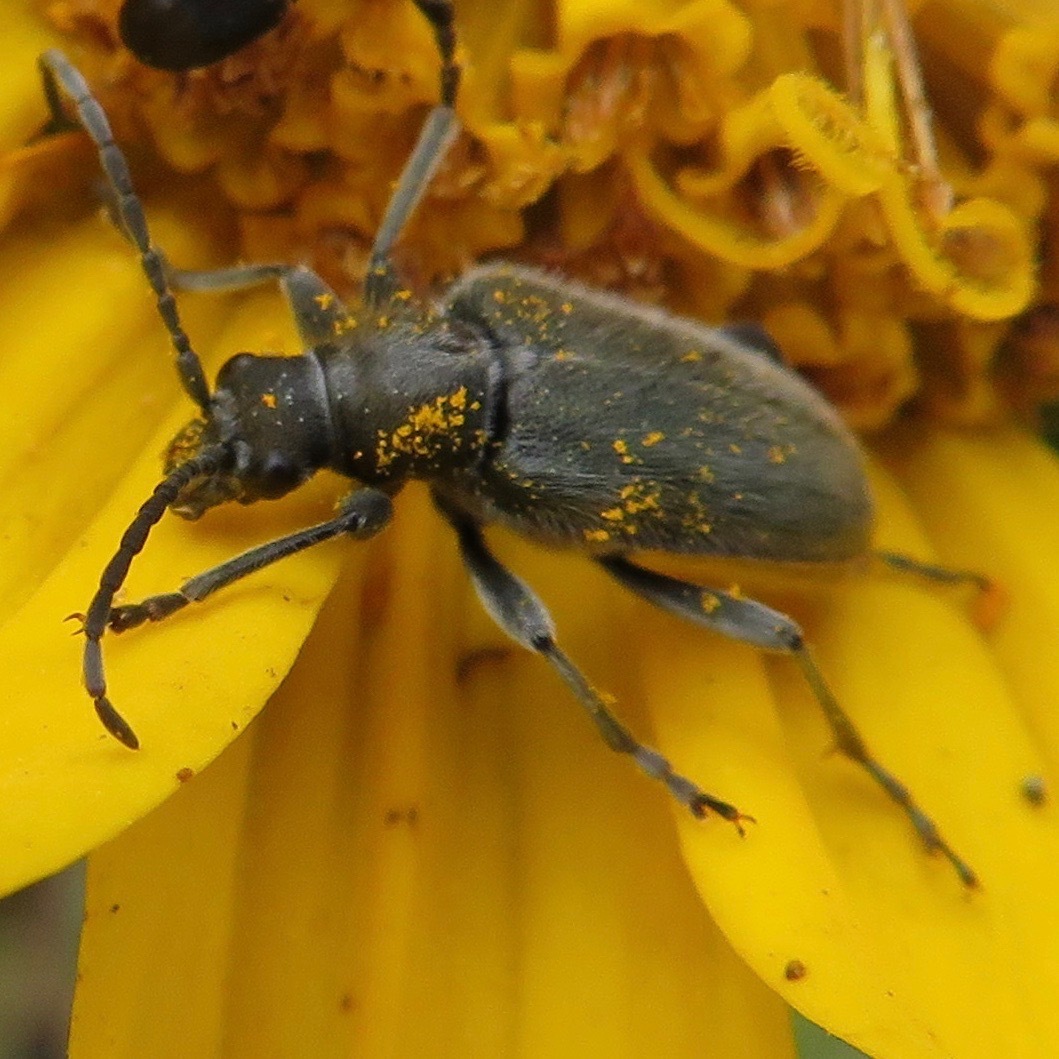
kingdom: Animalia
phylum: Arthropoda
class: Insecta
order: Coleoptera
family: Cerambycidae
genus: Brachysomida
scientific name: Brachysomida californica
